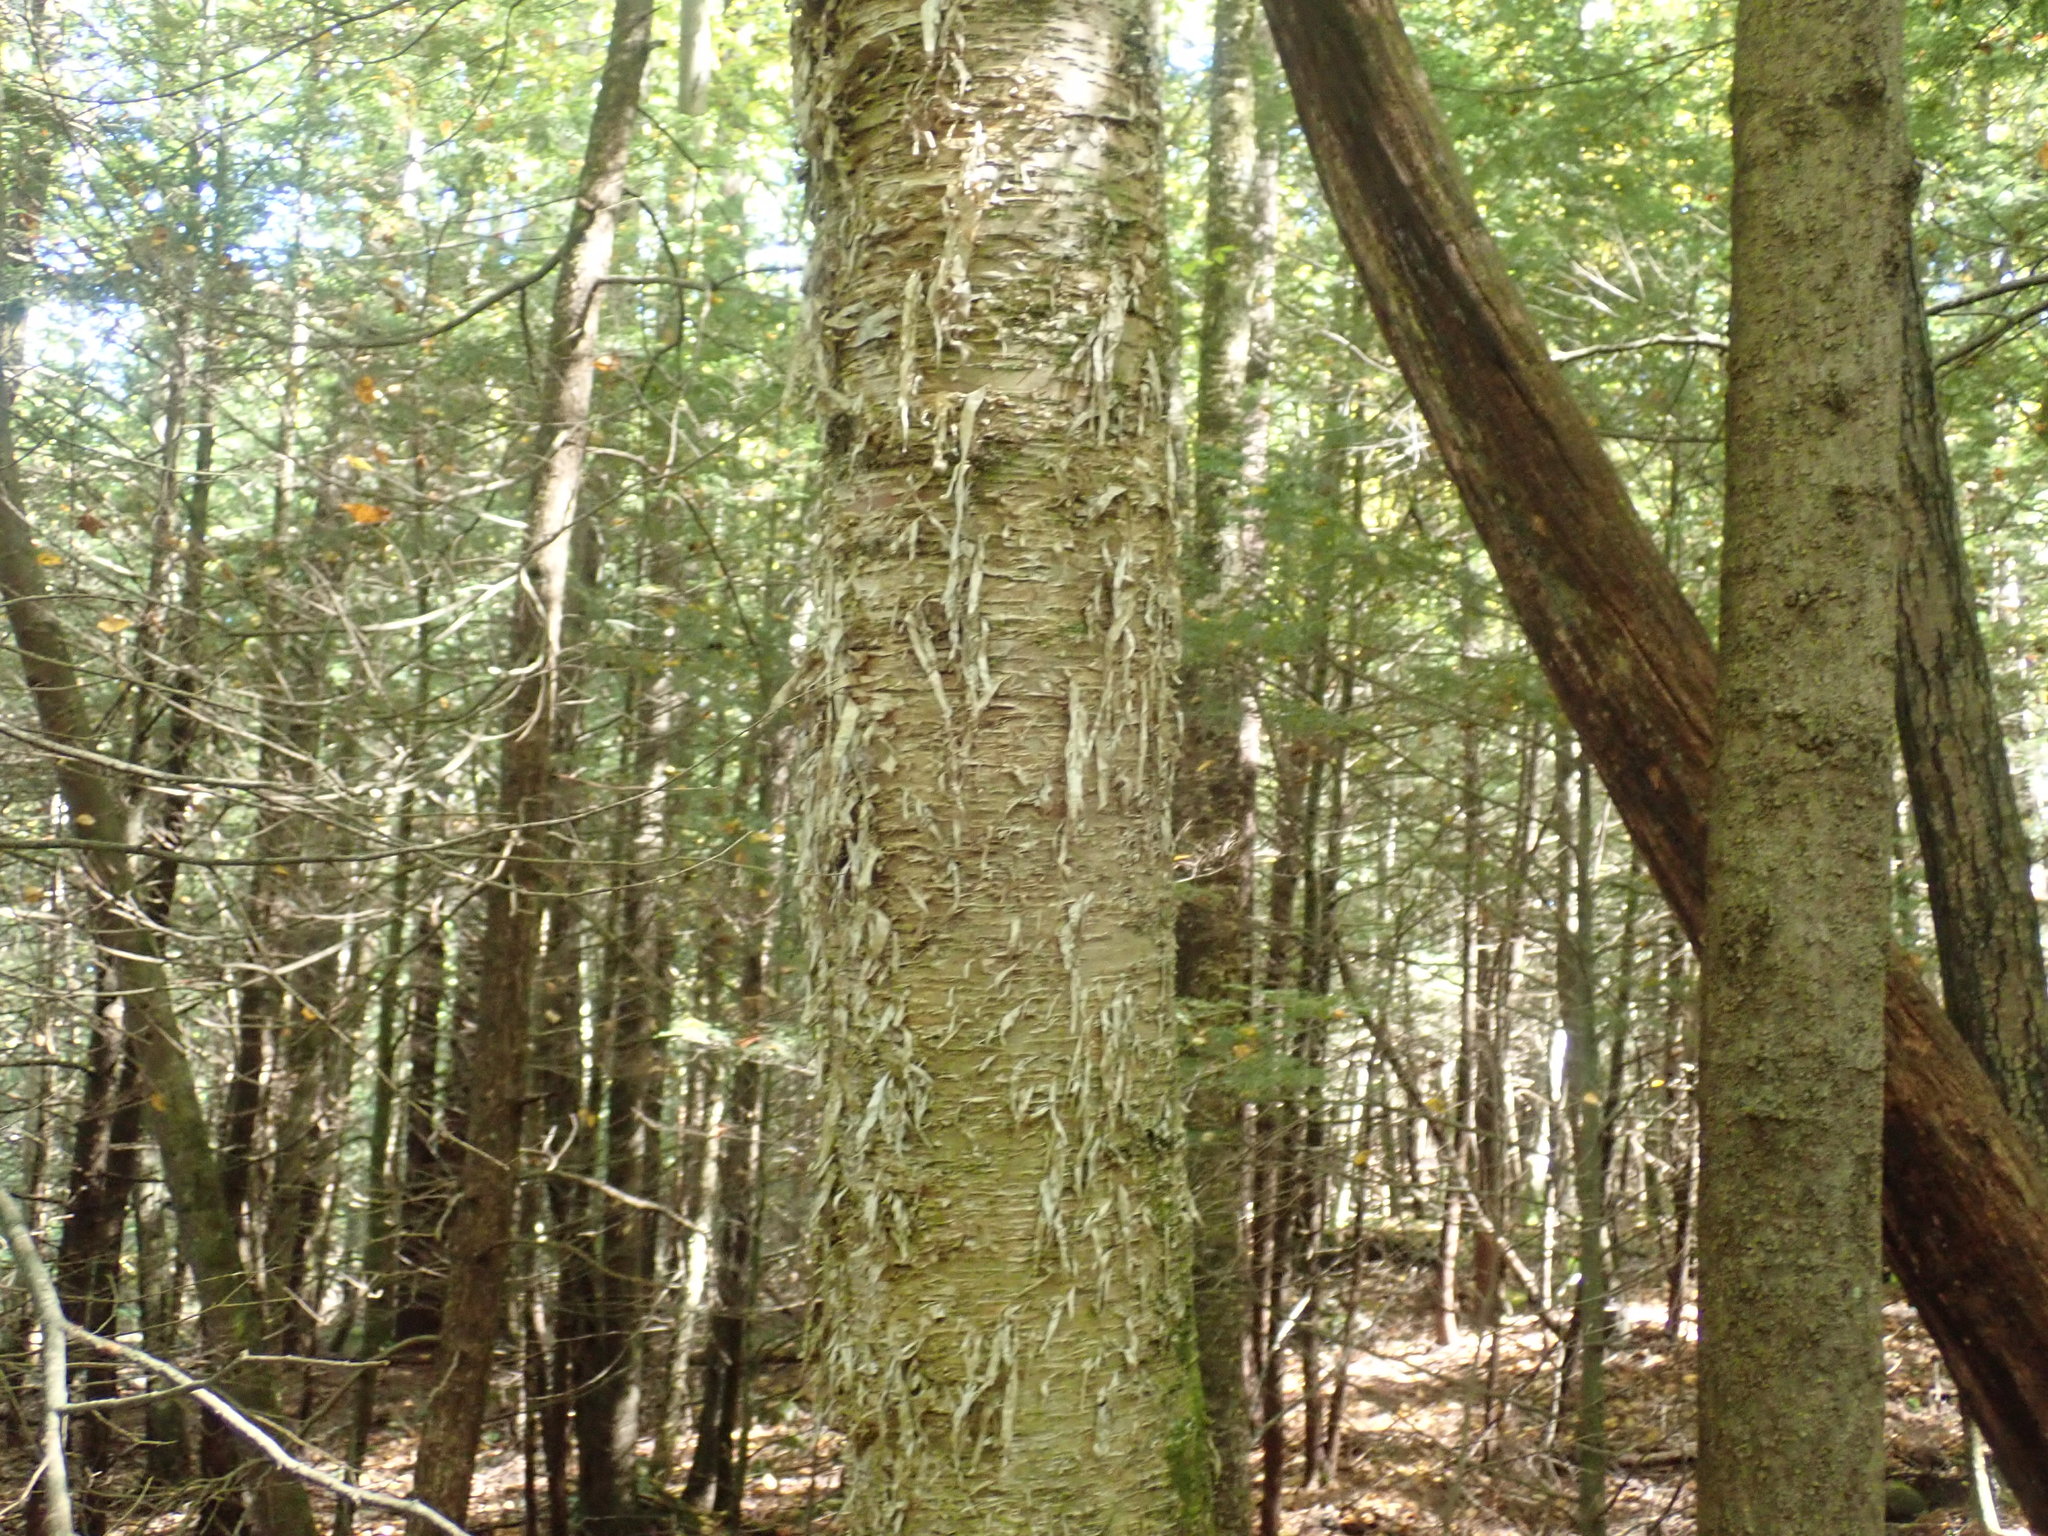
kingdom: Plantae
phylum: Tracheophyta
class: Magnoliopsida
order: Fagales
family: Betulaceae
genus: Betula
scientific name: Betula alleghaniensis
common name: Yellow birch
